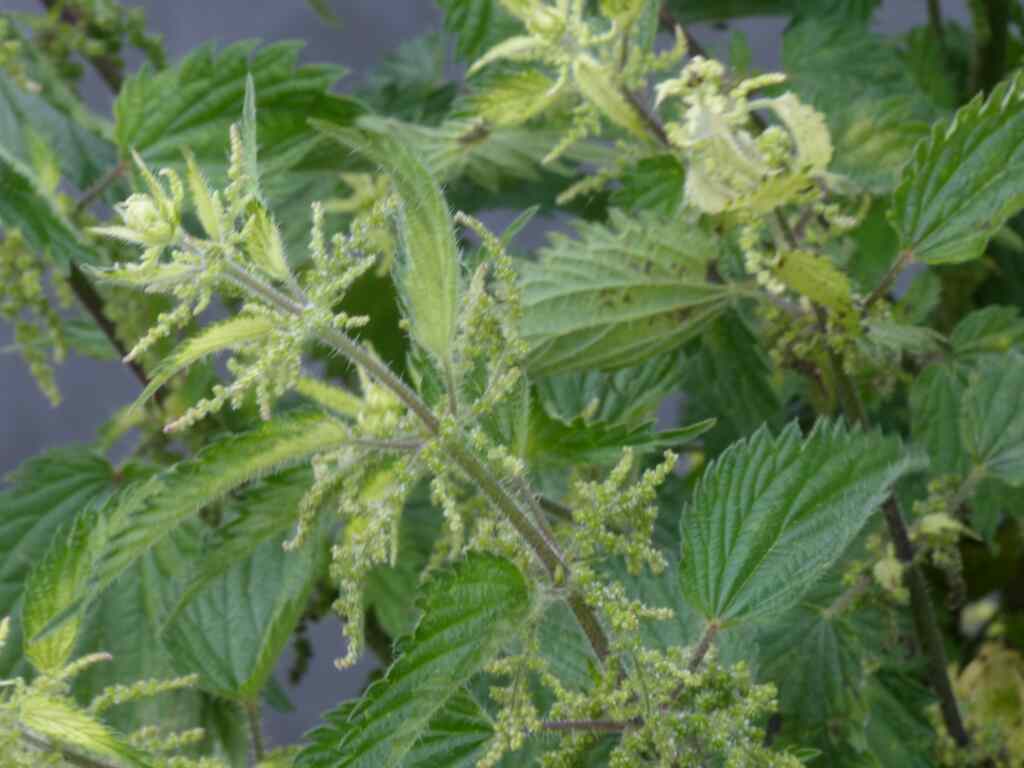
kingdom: Plantae
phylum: Tracheophyta
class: Magnoliopsida
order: Rosales
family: Urticaceae
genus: Urtica
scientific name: Urtica dioica
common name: Common nettle
